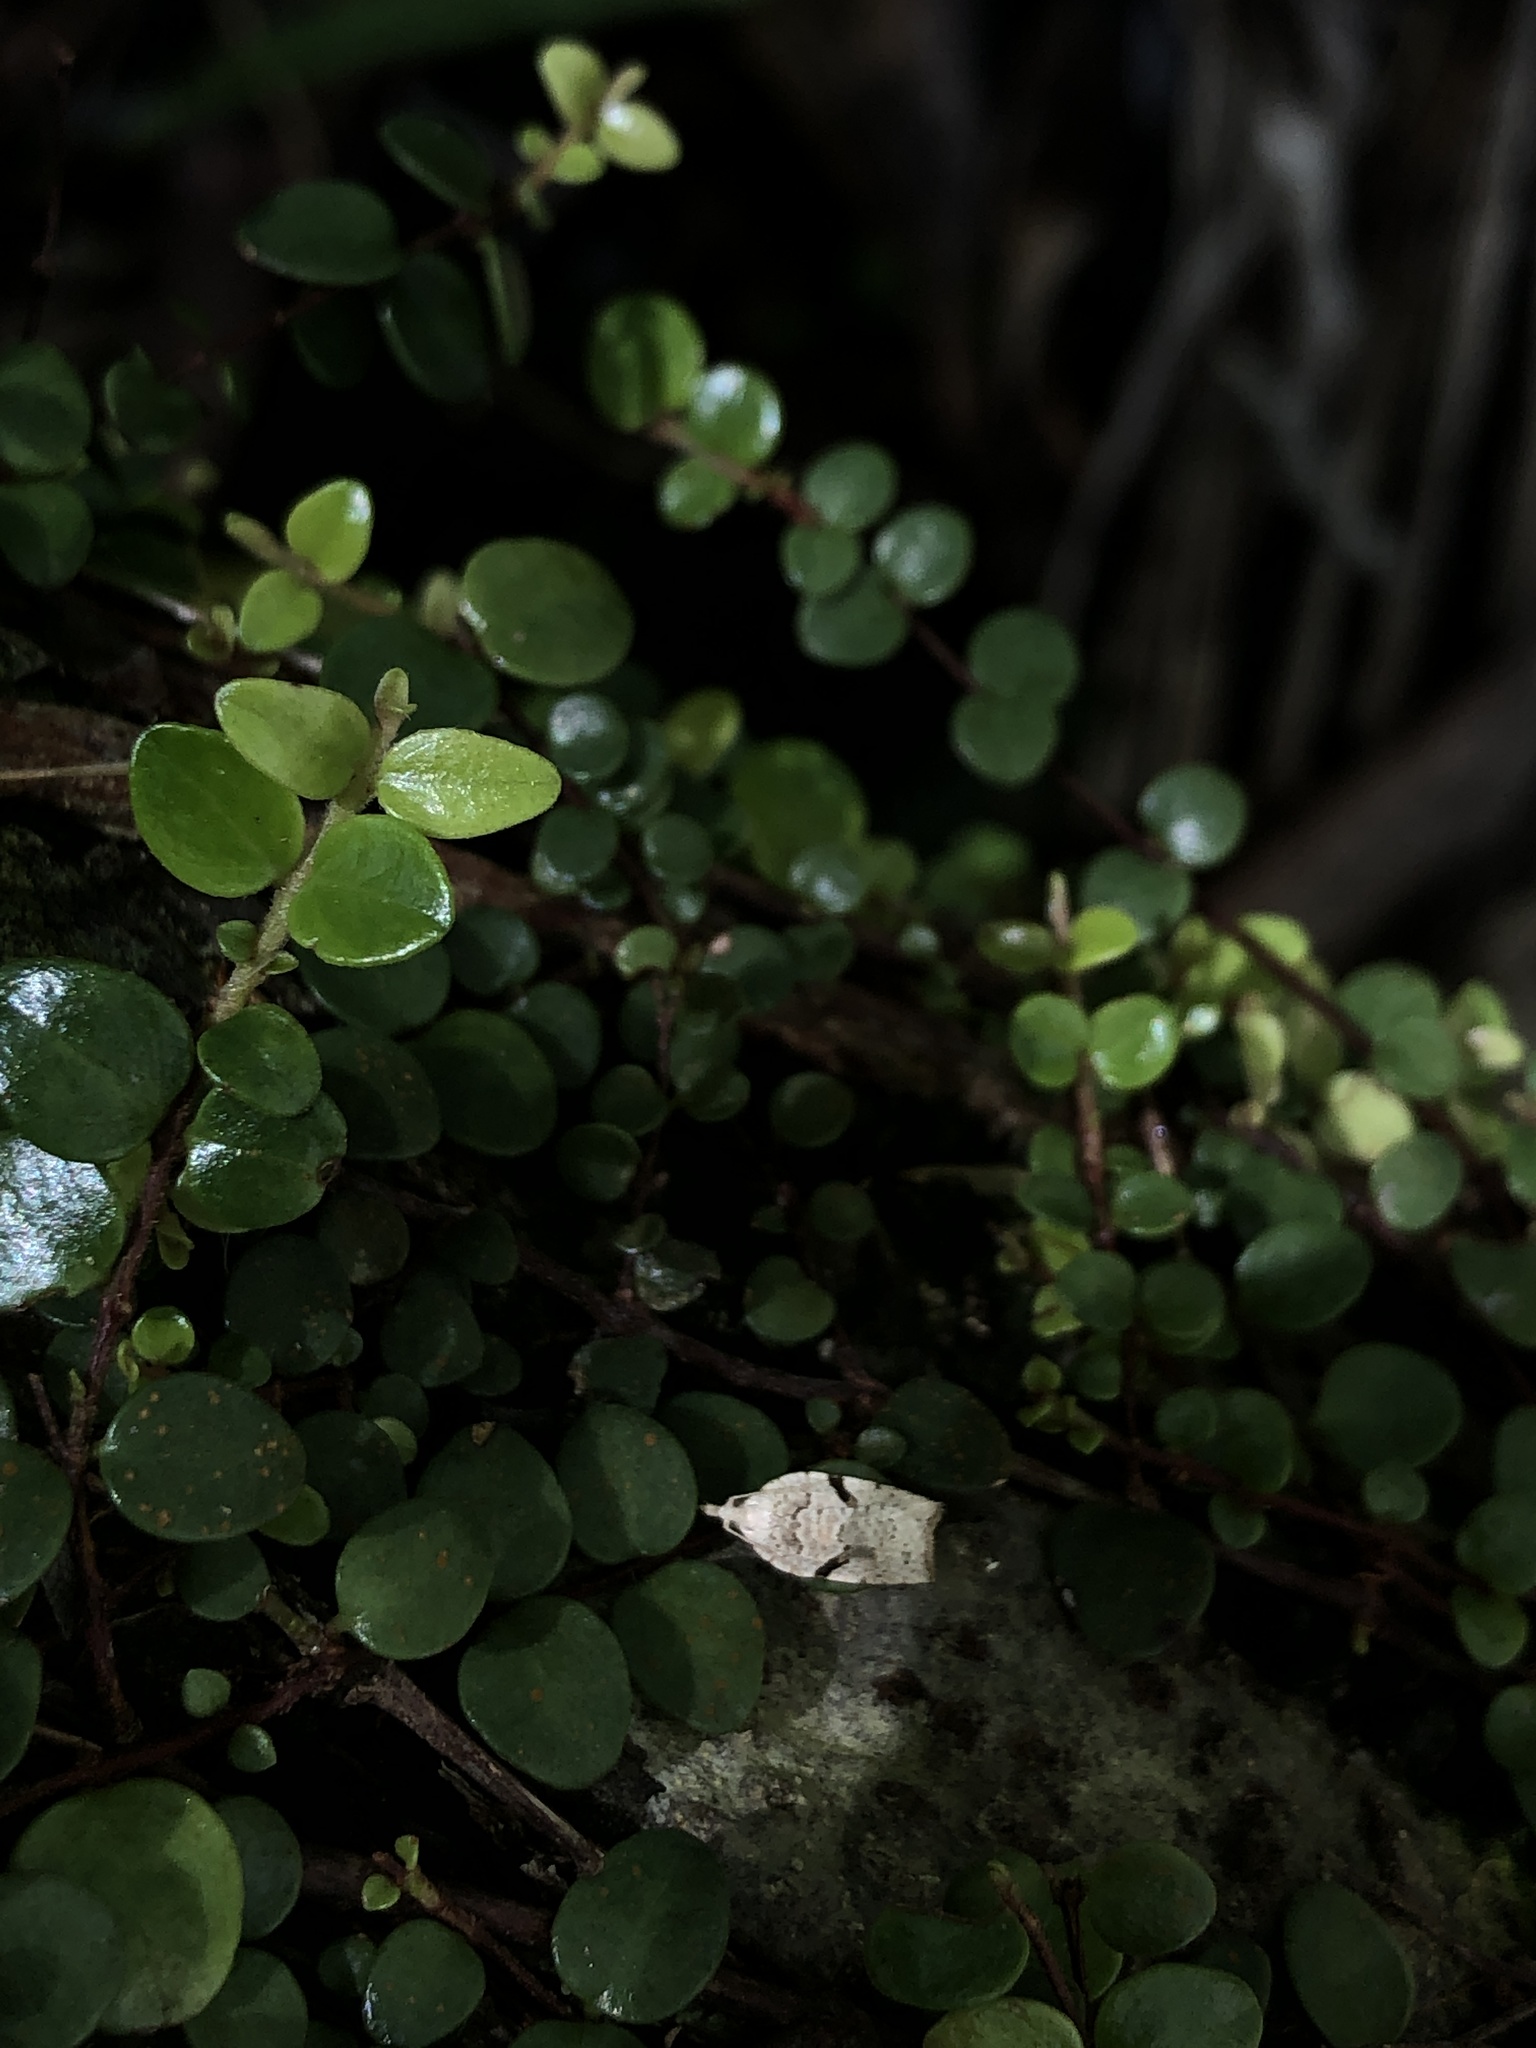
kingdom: Animalia
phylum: Arthropoda
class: Insecta
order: Lepidoptera
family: Tortricidae
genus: Leucotenes
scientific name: Leucotenes coprosmae
